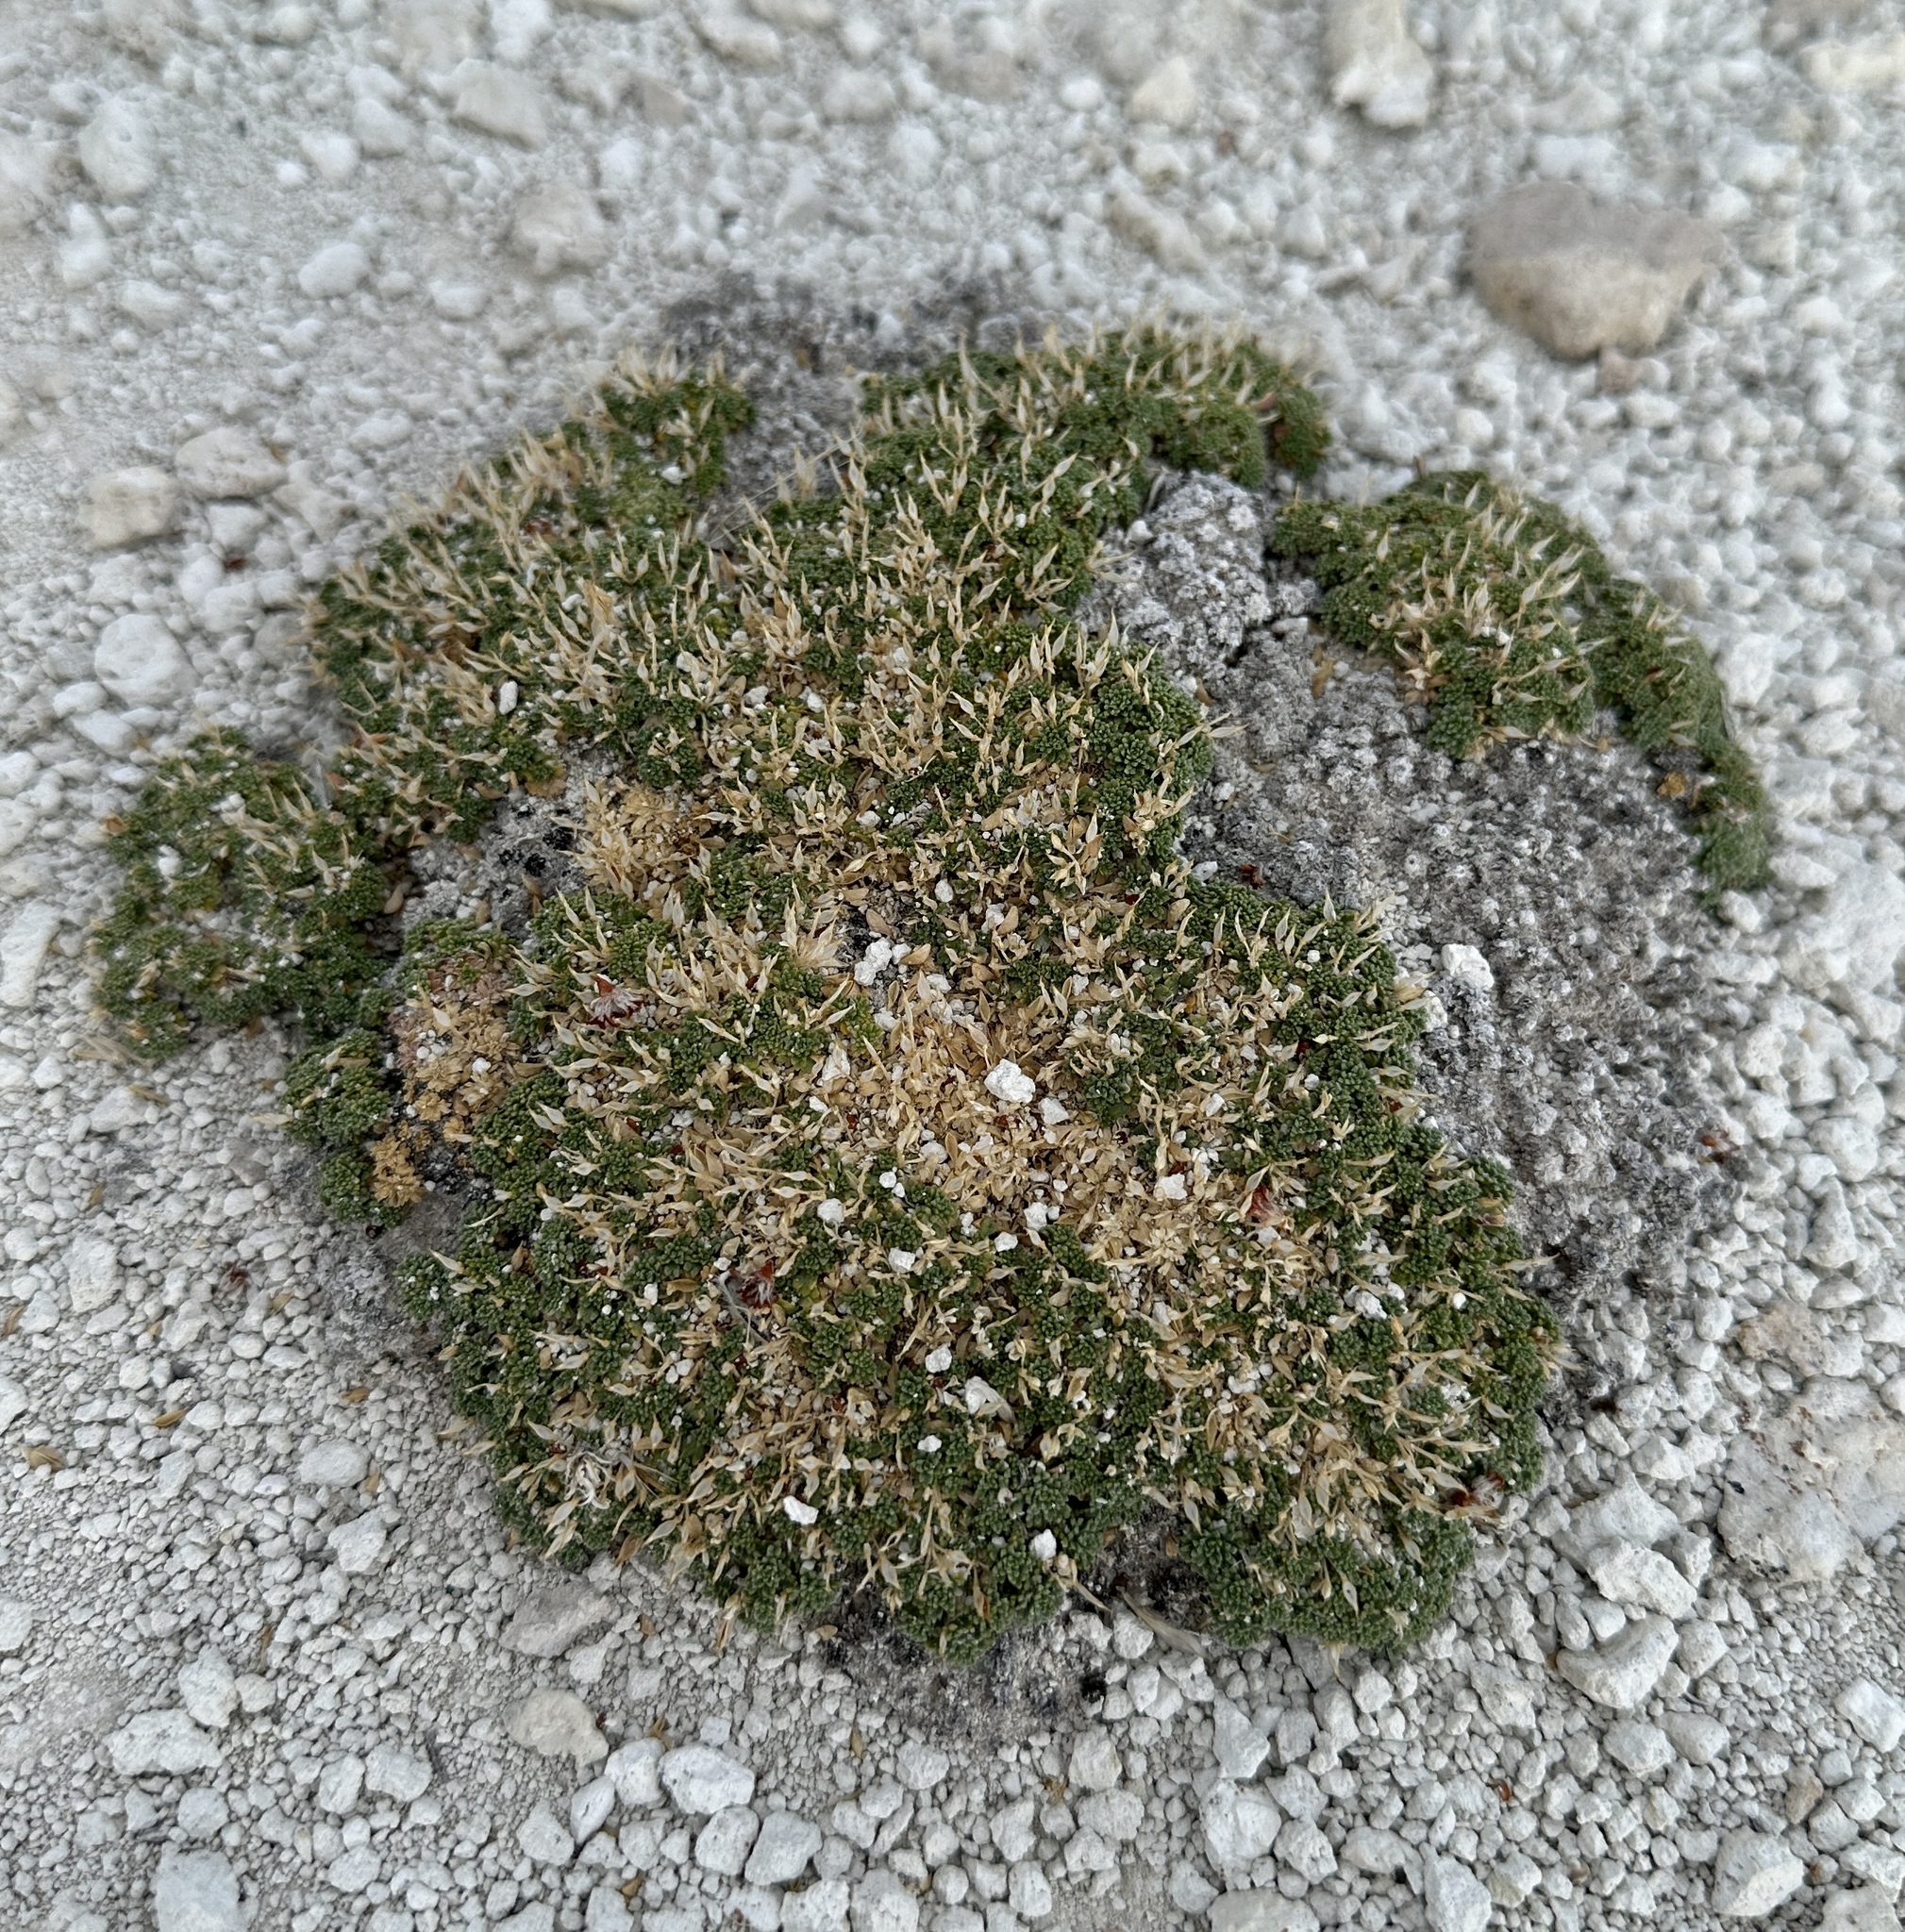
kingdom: Plantae
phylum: Tracheophyta
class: Magnoliopsida
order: Brassicales
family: Brassicaceae
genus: Lepidium
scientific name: Lepidium nanum
